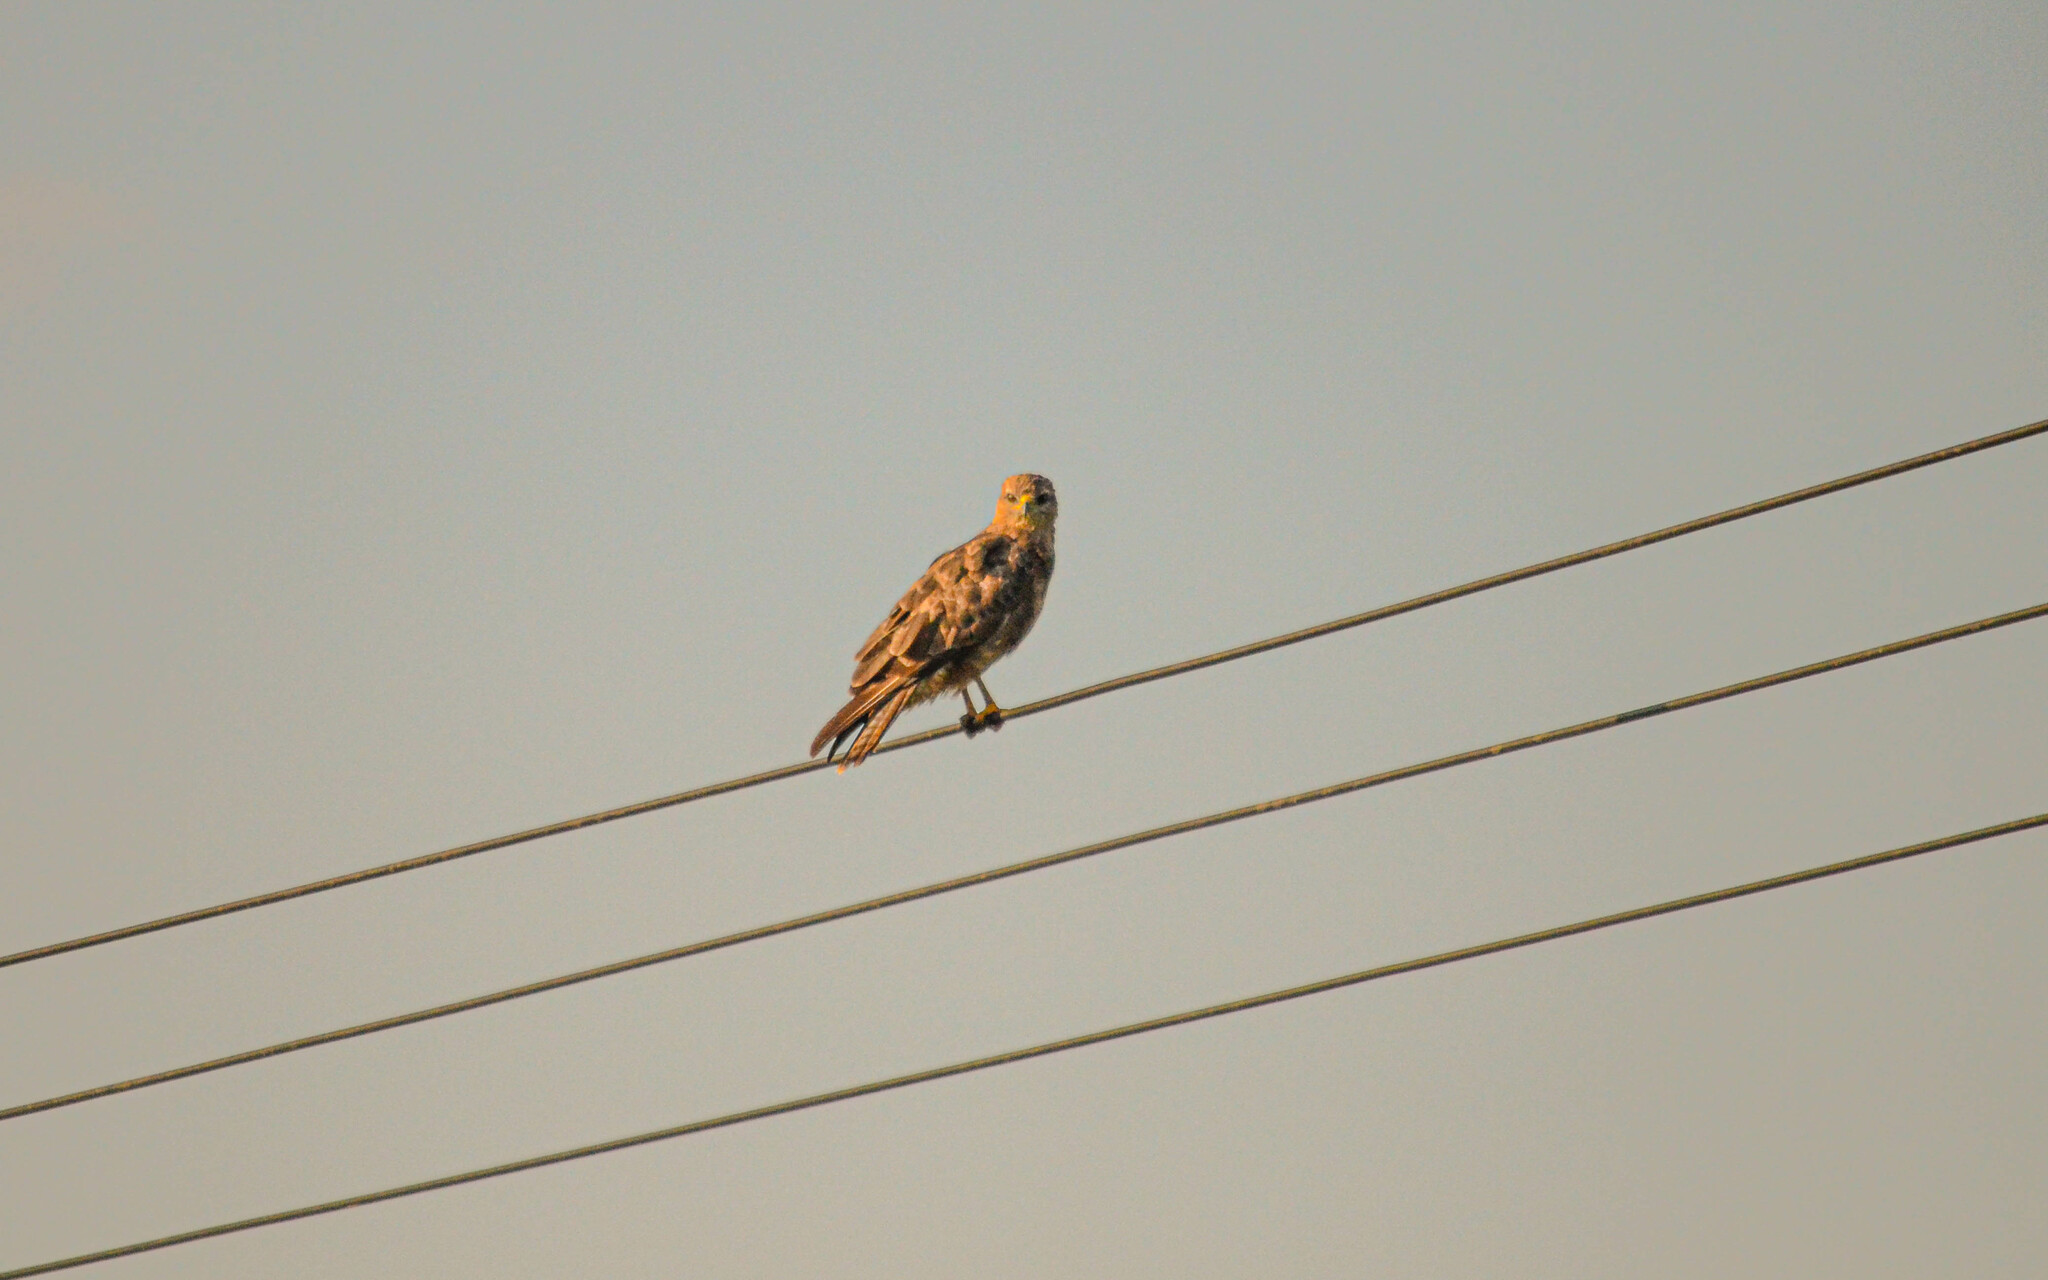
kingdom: Animalia
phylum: Chordata
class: Aves
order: Accipitriformes
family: Accipitridae
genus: Buteo
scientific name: Buteo buteo
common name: Common buzzard
